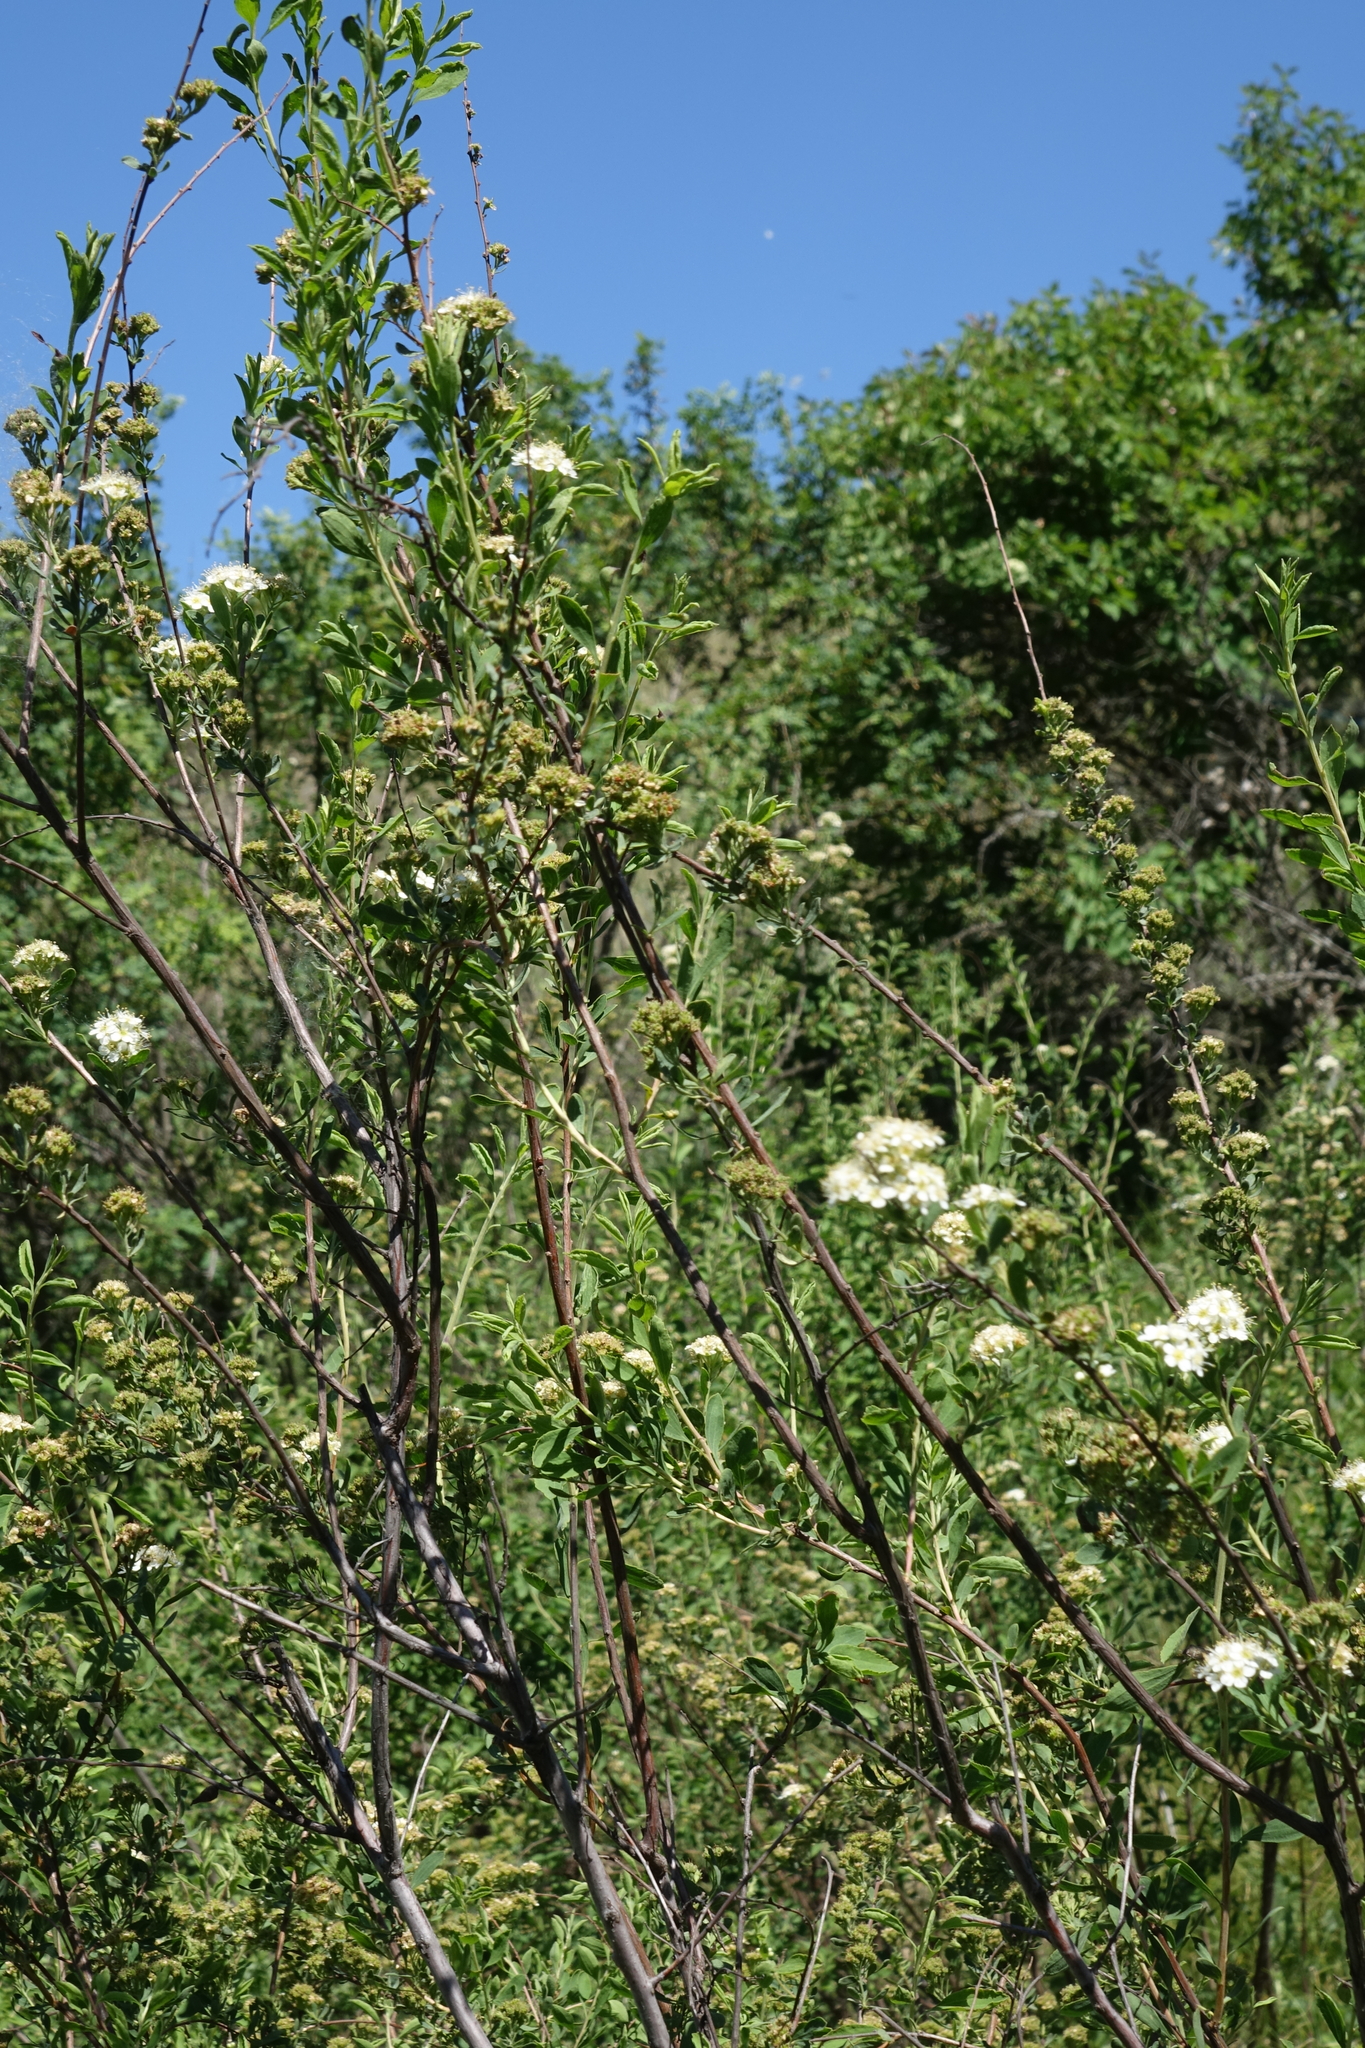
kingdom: Plantae
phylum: Tracheophyta
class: Magnoliopsida
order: Rosales
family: Rosaceae
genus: Spiraea
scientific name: Spiraea crenata
